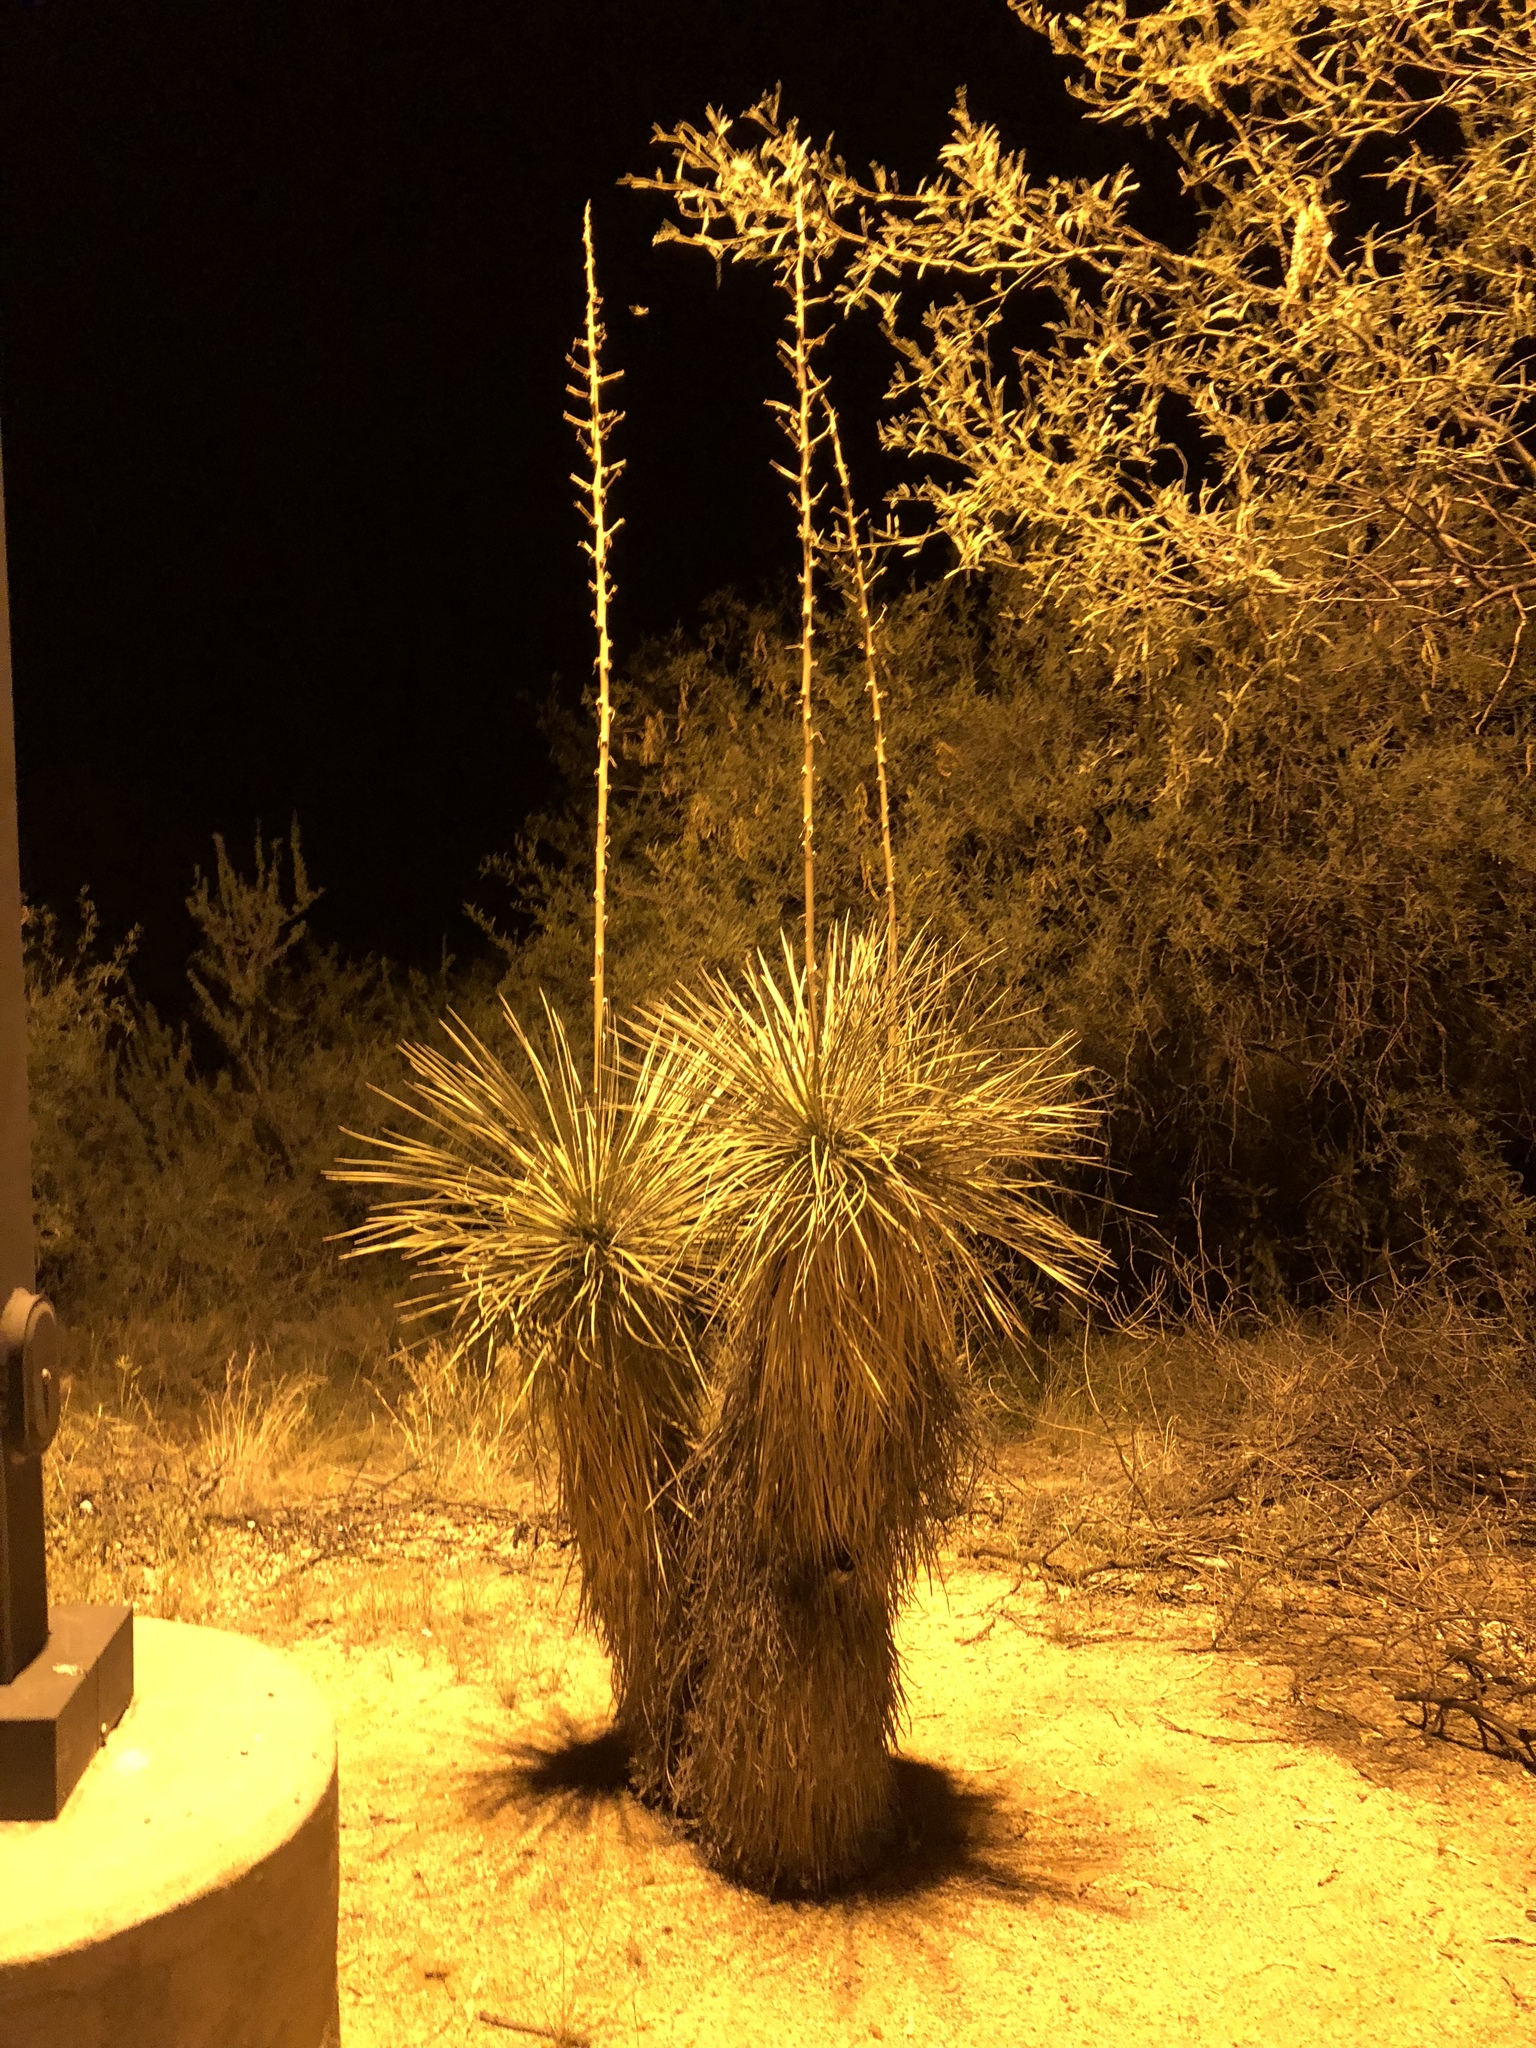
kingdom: Plantae
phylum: Tracheophyta
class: Liliopsida
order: Asparagales
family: Asparagaceae
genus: Yucca
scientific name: Yucca elata
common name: Palmella
